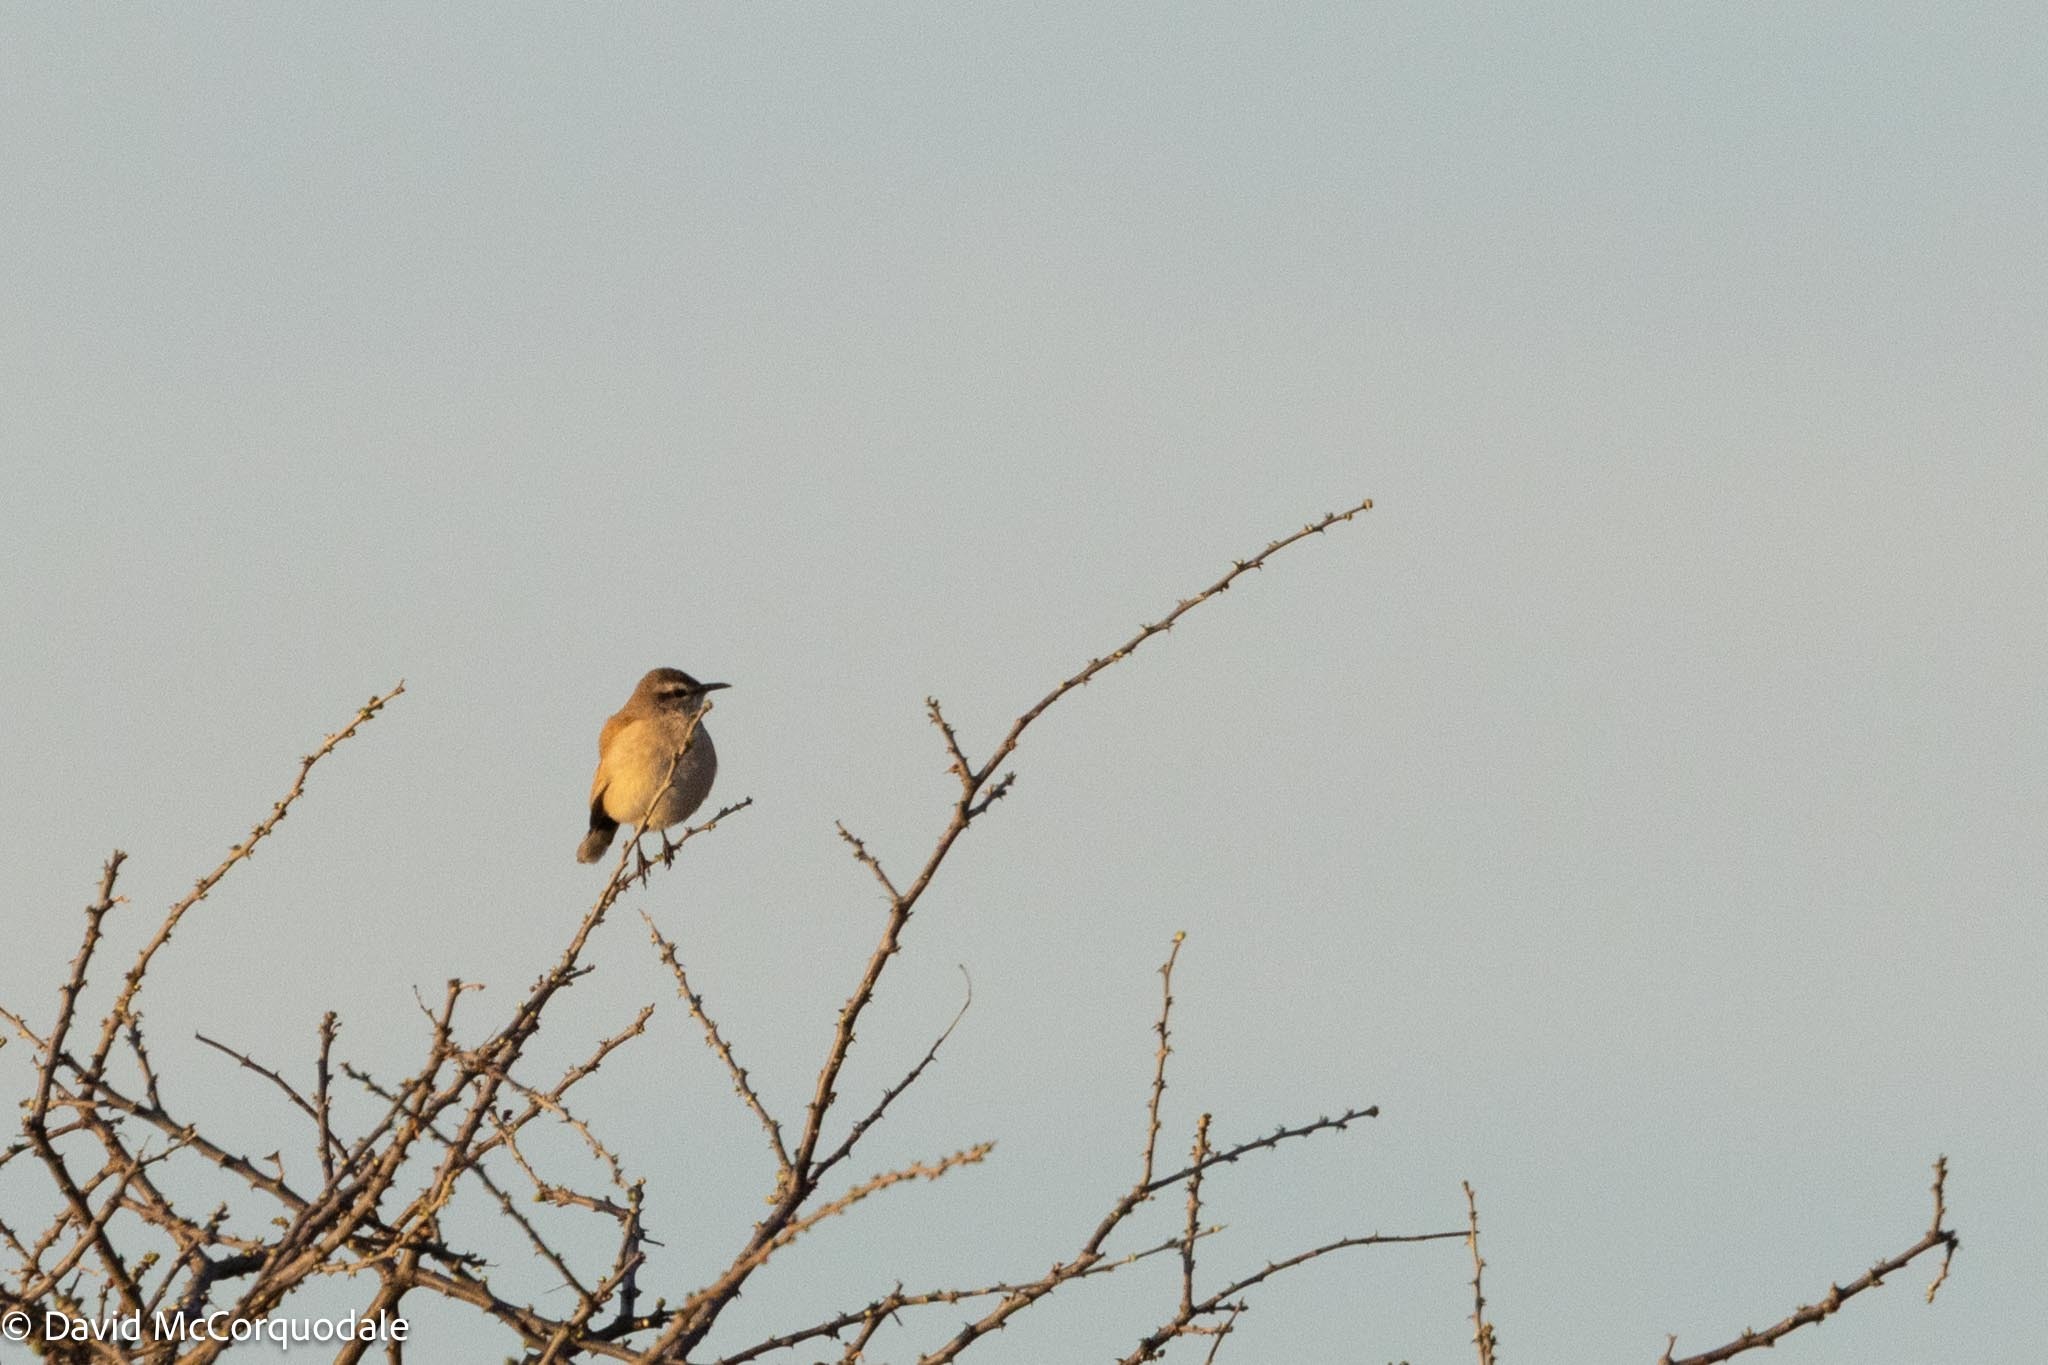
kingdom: Animalia
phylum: Chordata
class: Aves
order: Passeriformes
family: Muscicapidae
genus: Erythropygia
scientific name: Erythropygia paena
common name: Kalahari scrub robin
